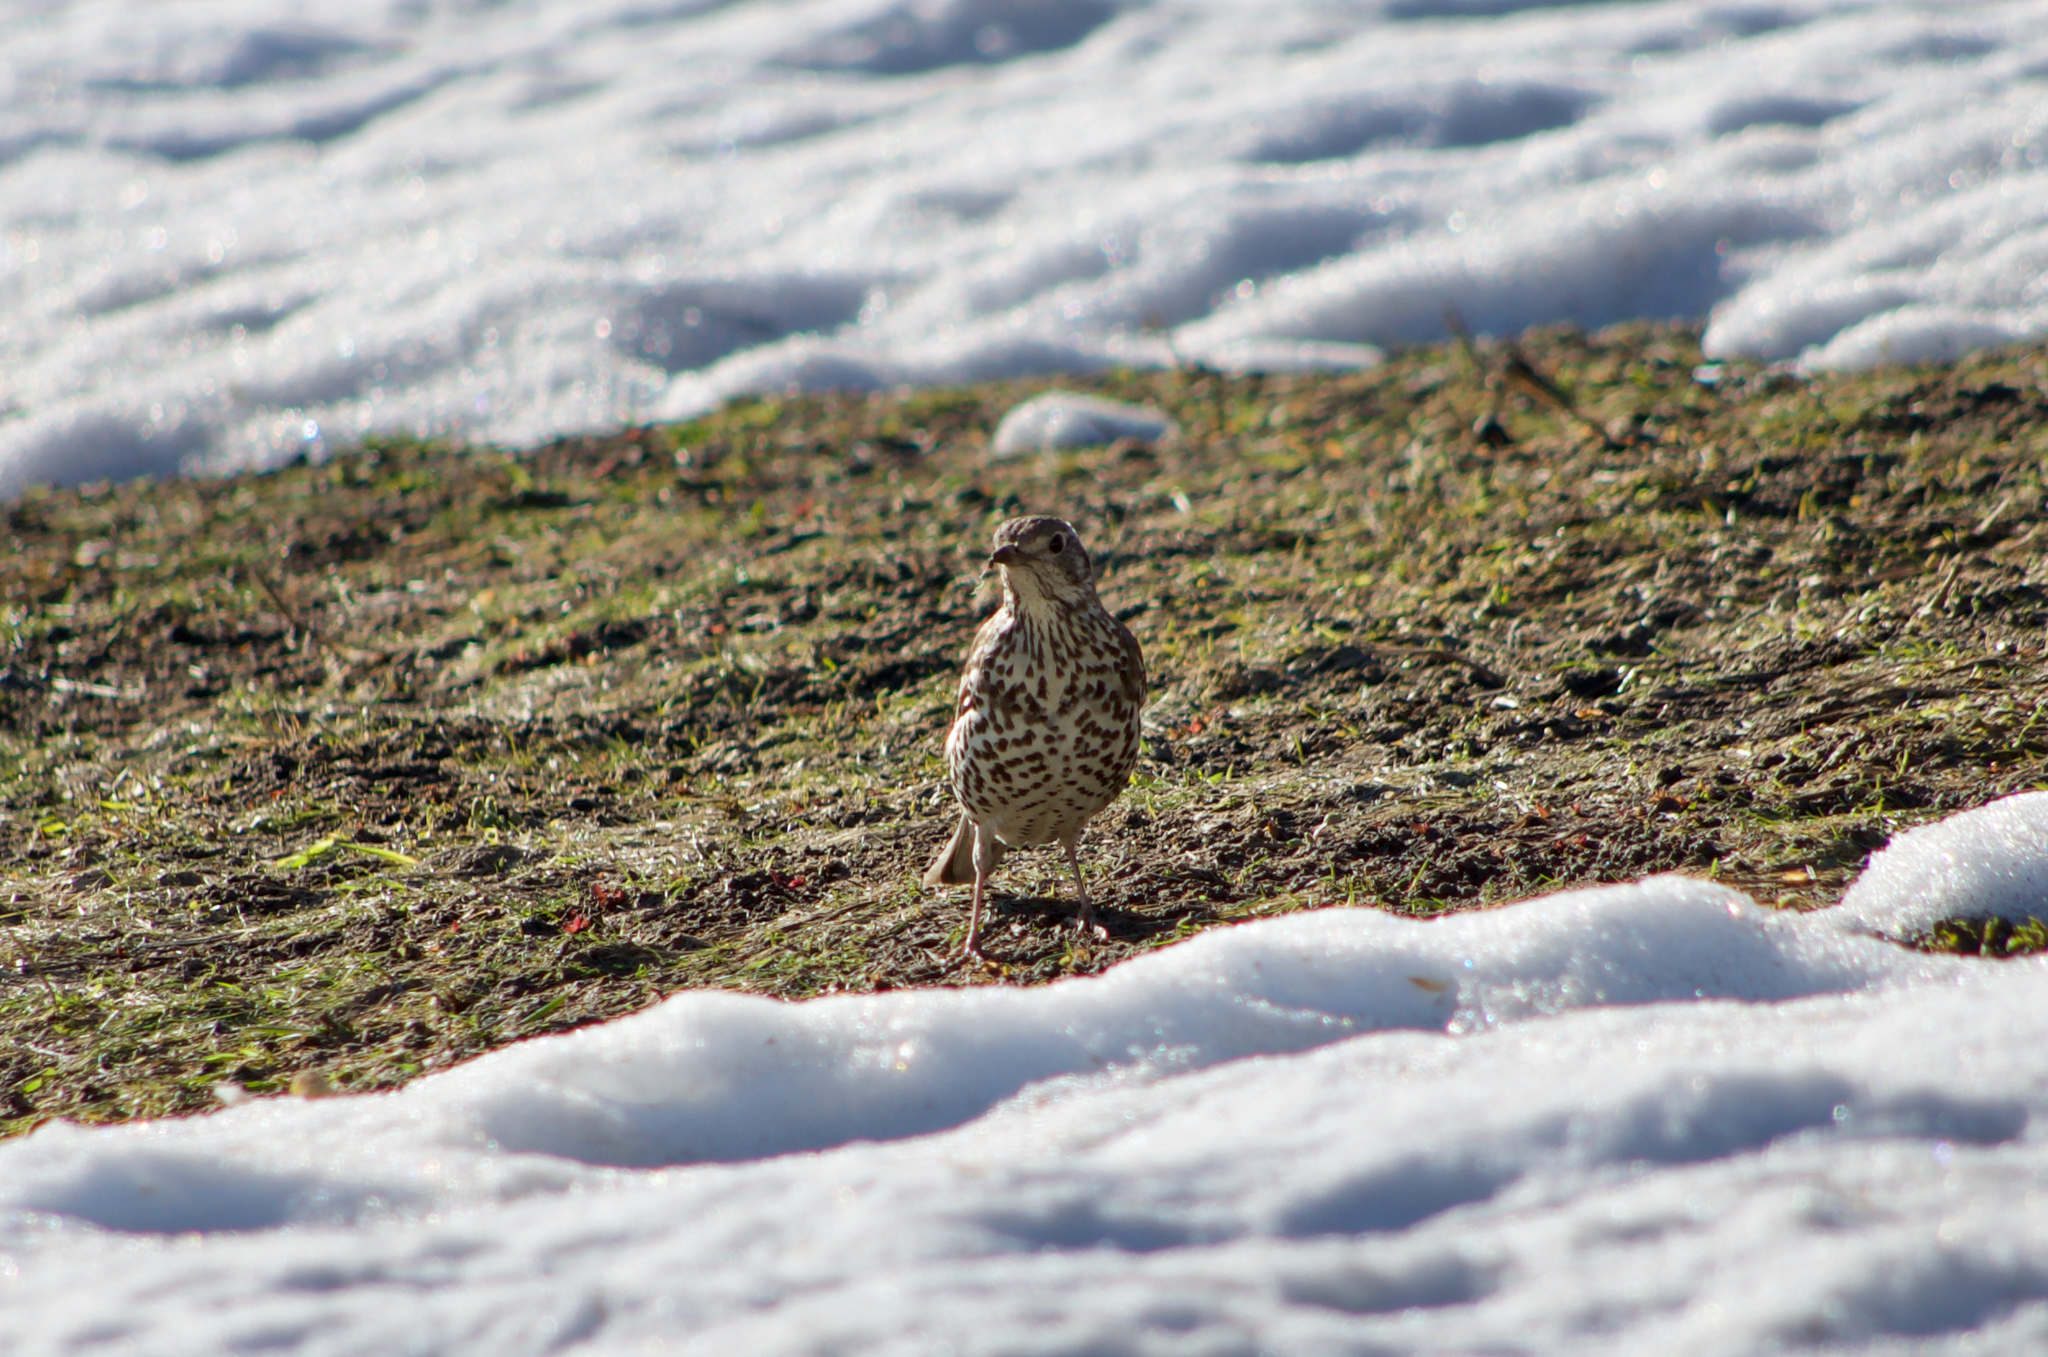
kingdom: Animalia
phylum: Chordata
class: Aves
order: Passeriformes
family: Turdidae
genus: Turdus
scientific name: Turdus viscivorus
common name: Mistle thrush
